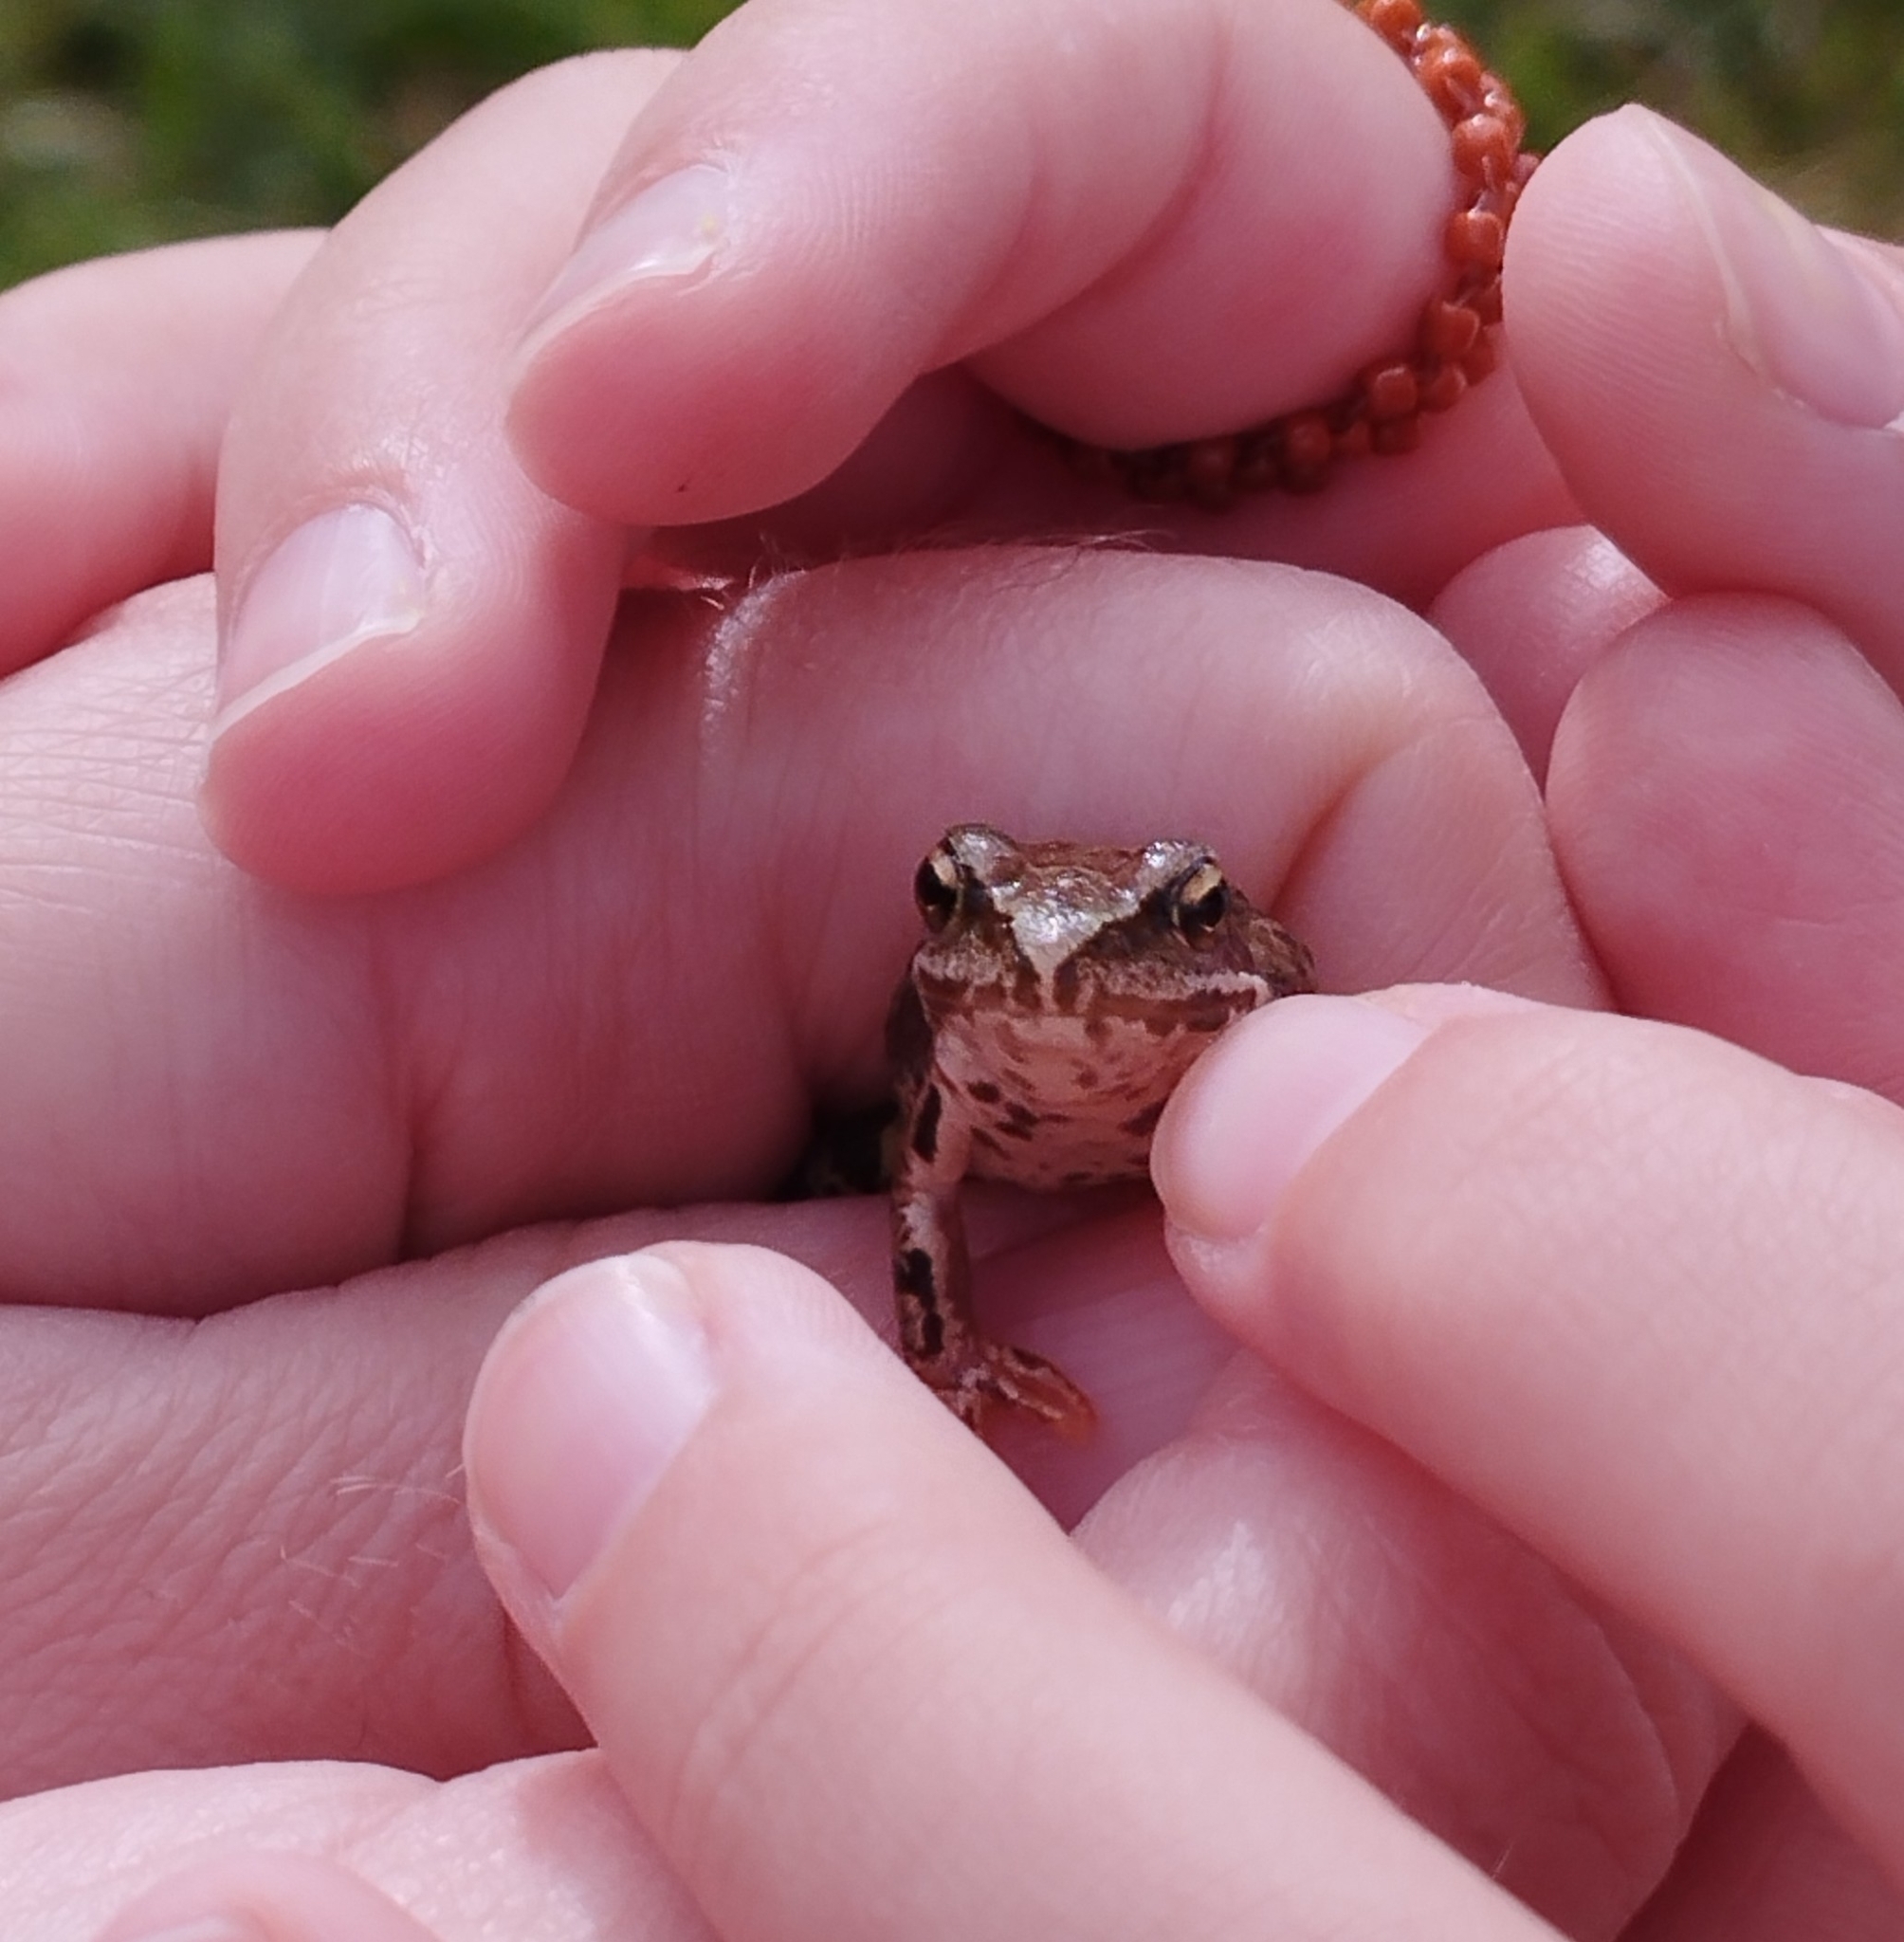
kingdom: Animalia
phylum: Chordata
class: Amphibia
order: Anura
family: Ranidae
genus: Rana
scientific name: Rana temporaria
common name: Common frog
